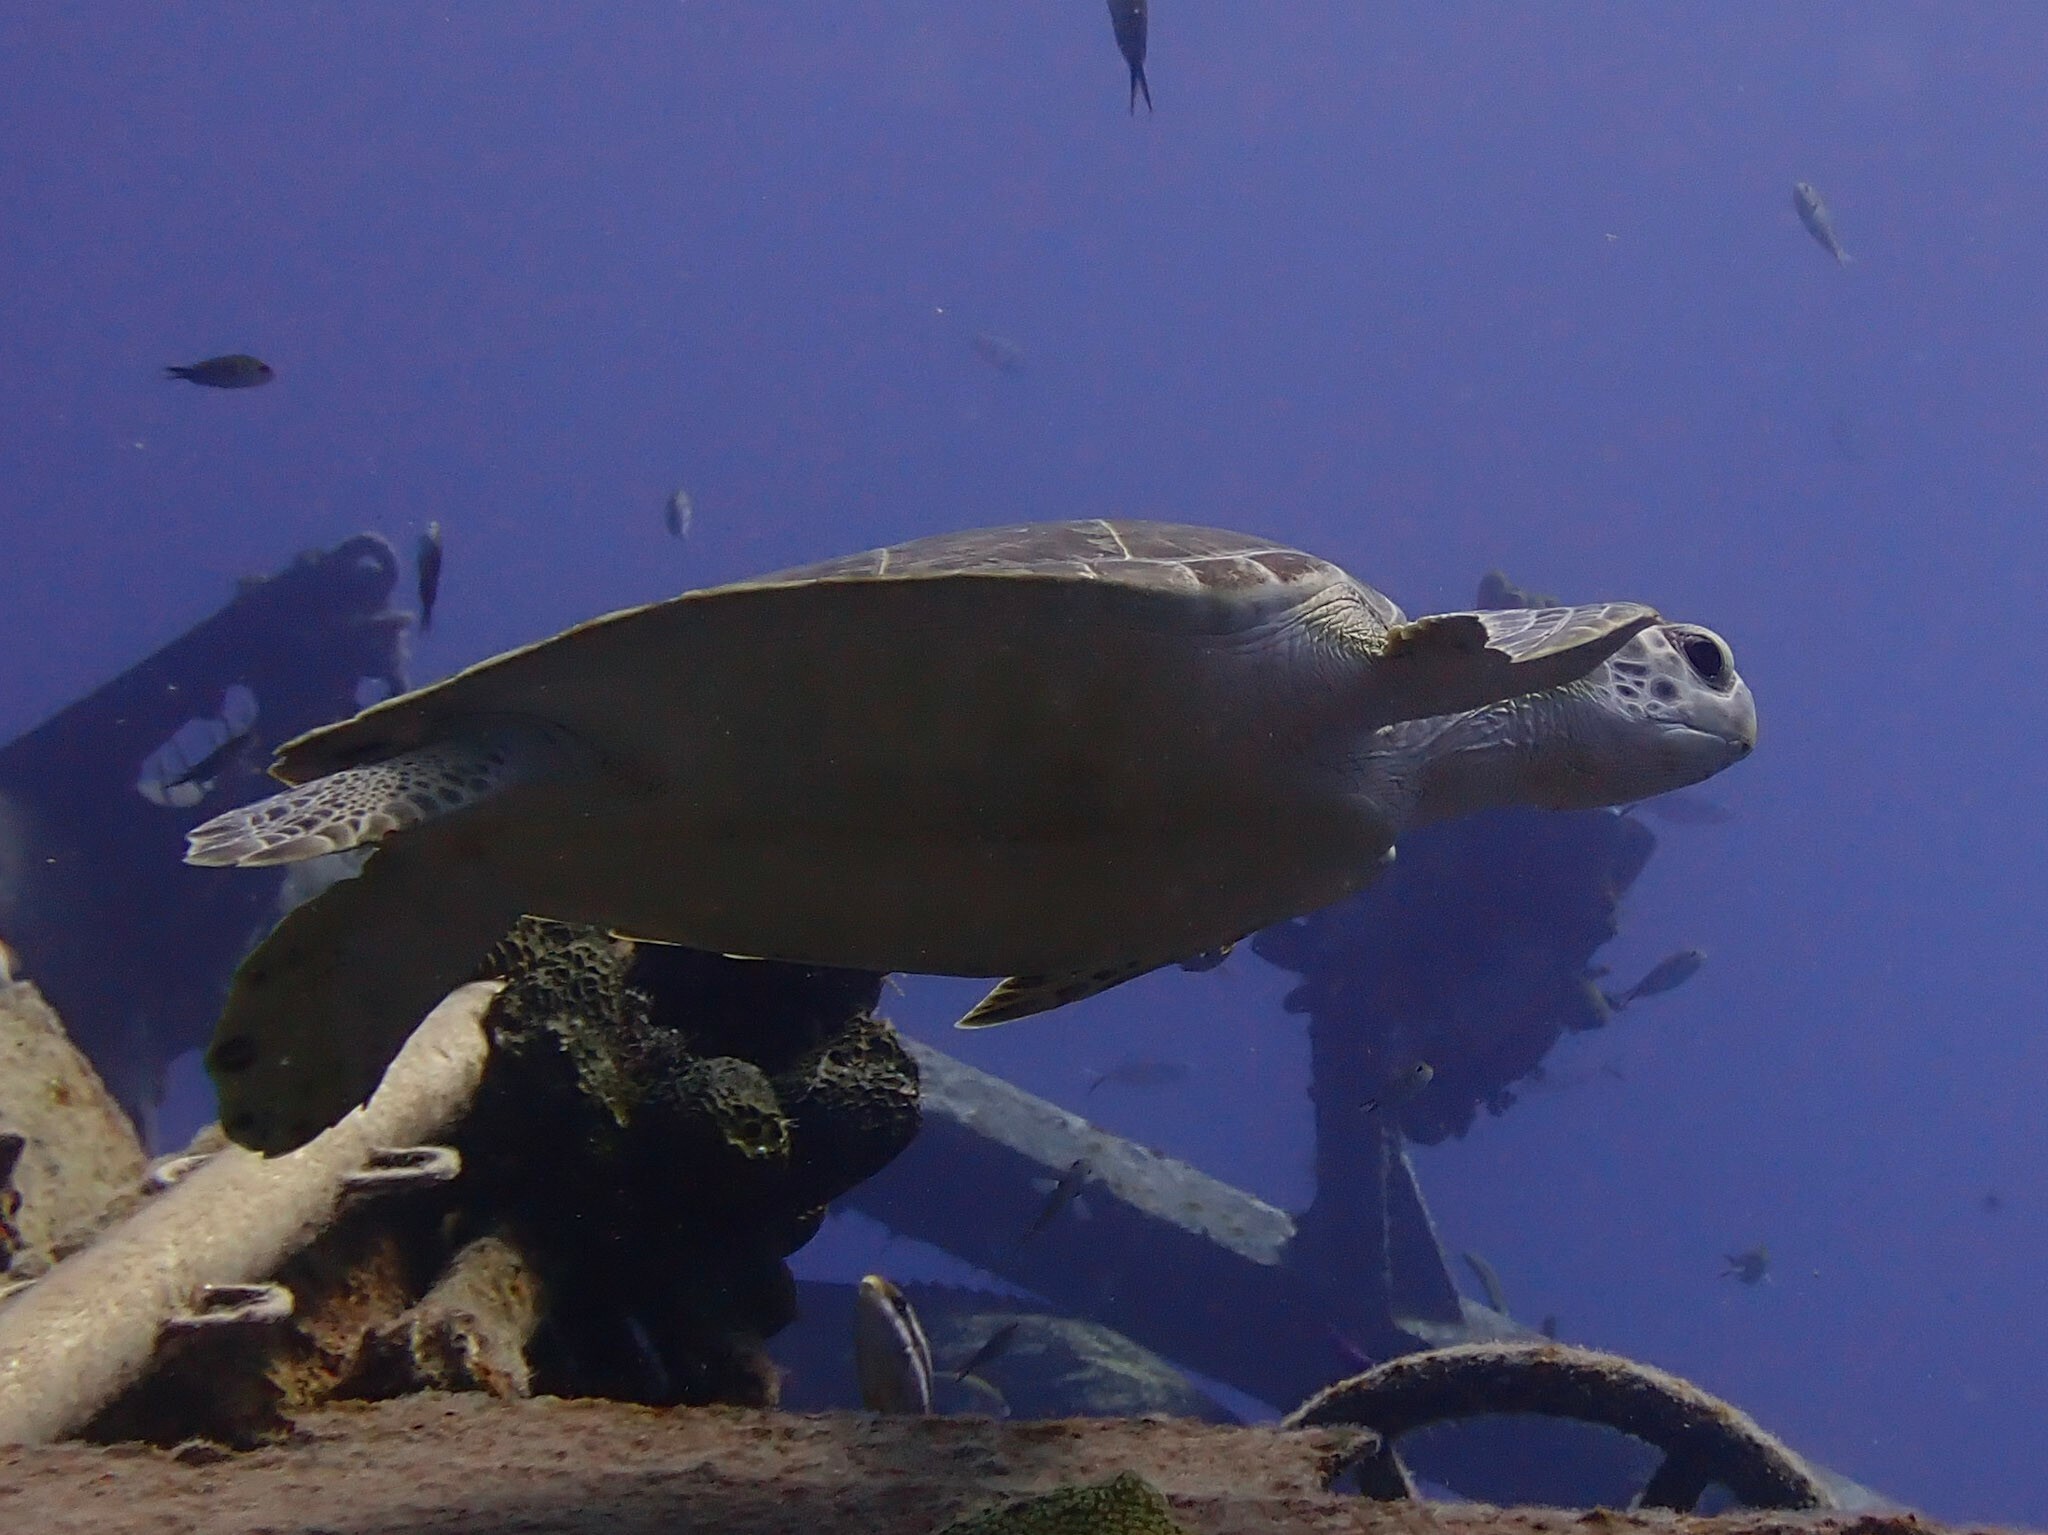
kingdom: Animalia
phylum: Chordata
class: Testudines
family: Cheloniidae
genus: Chelonia
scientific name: Chelonia mydas
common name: Green turtle
